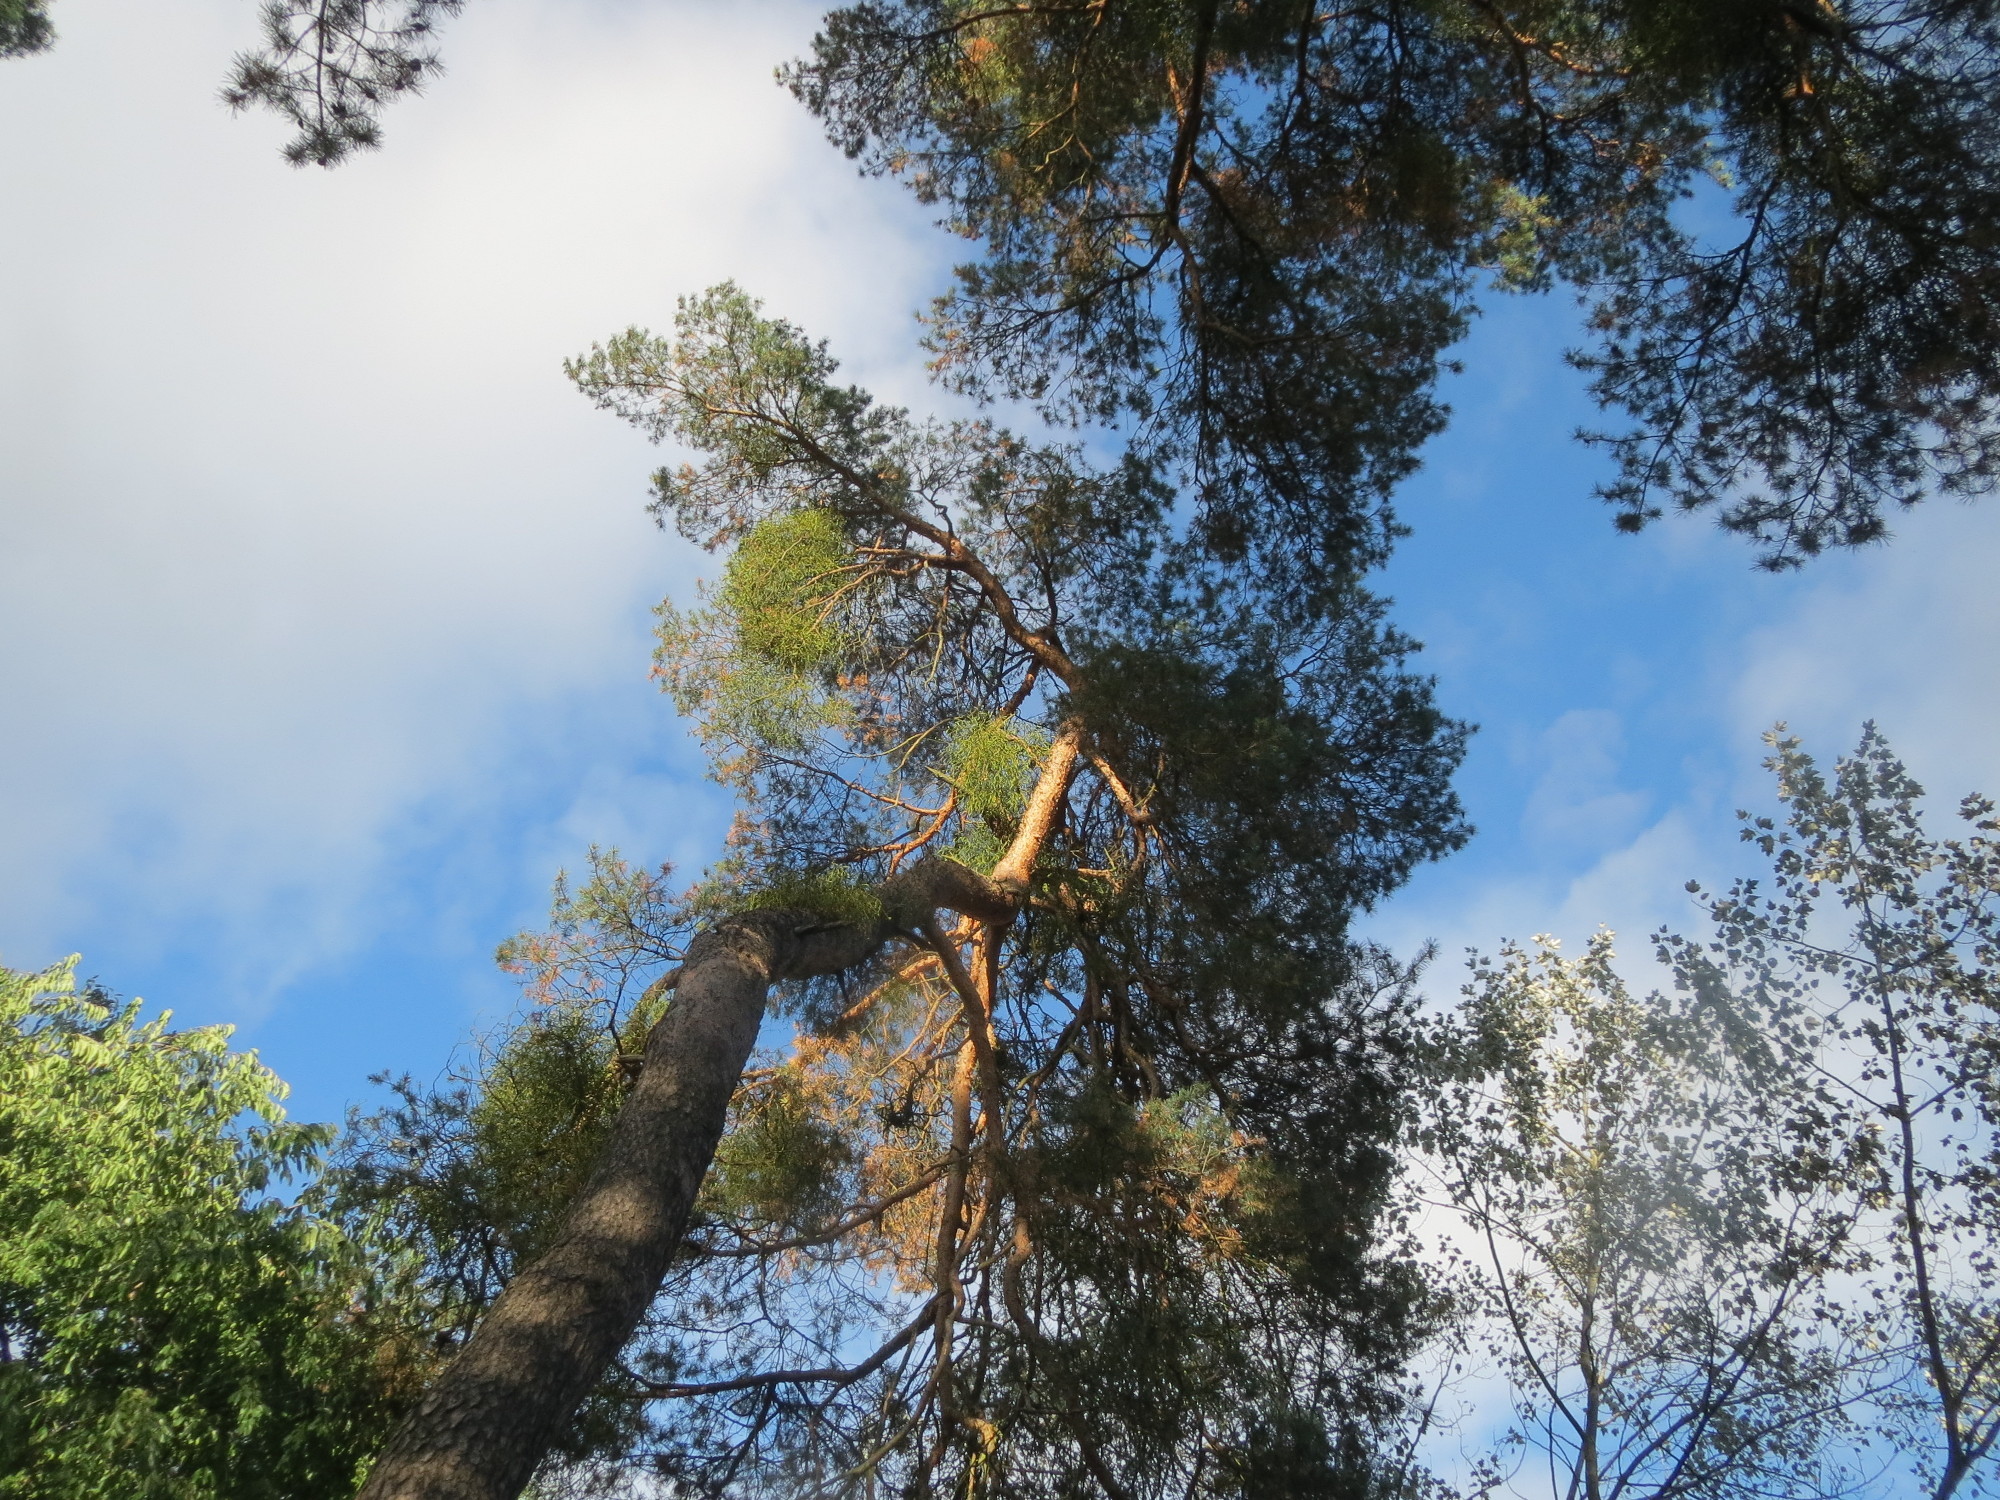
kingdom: Plantae
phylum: Tracheophyta
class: Magnoliopsida
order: Santalales
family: Viscaceae
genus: Viscum
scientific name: Viscum laxum
